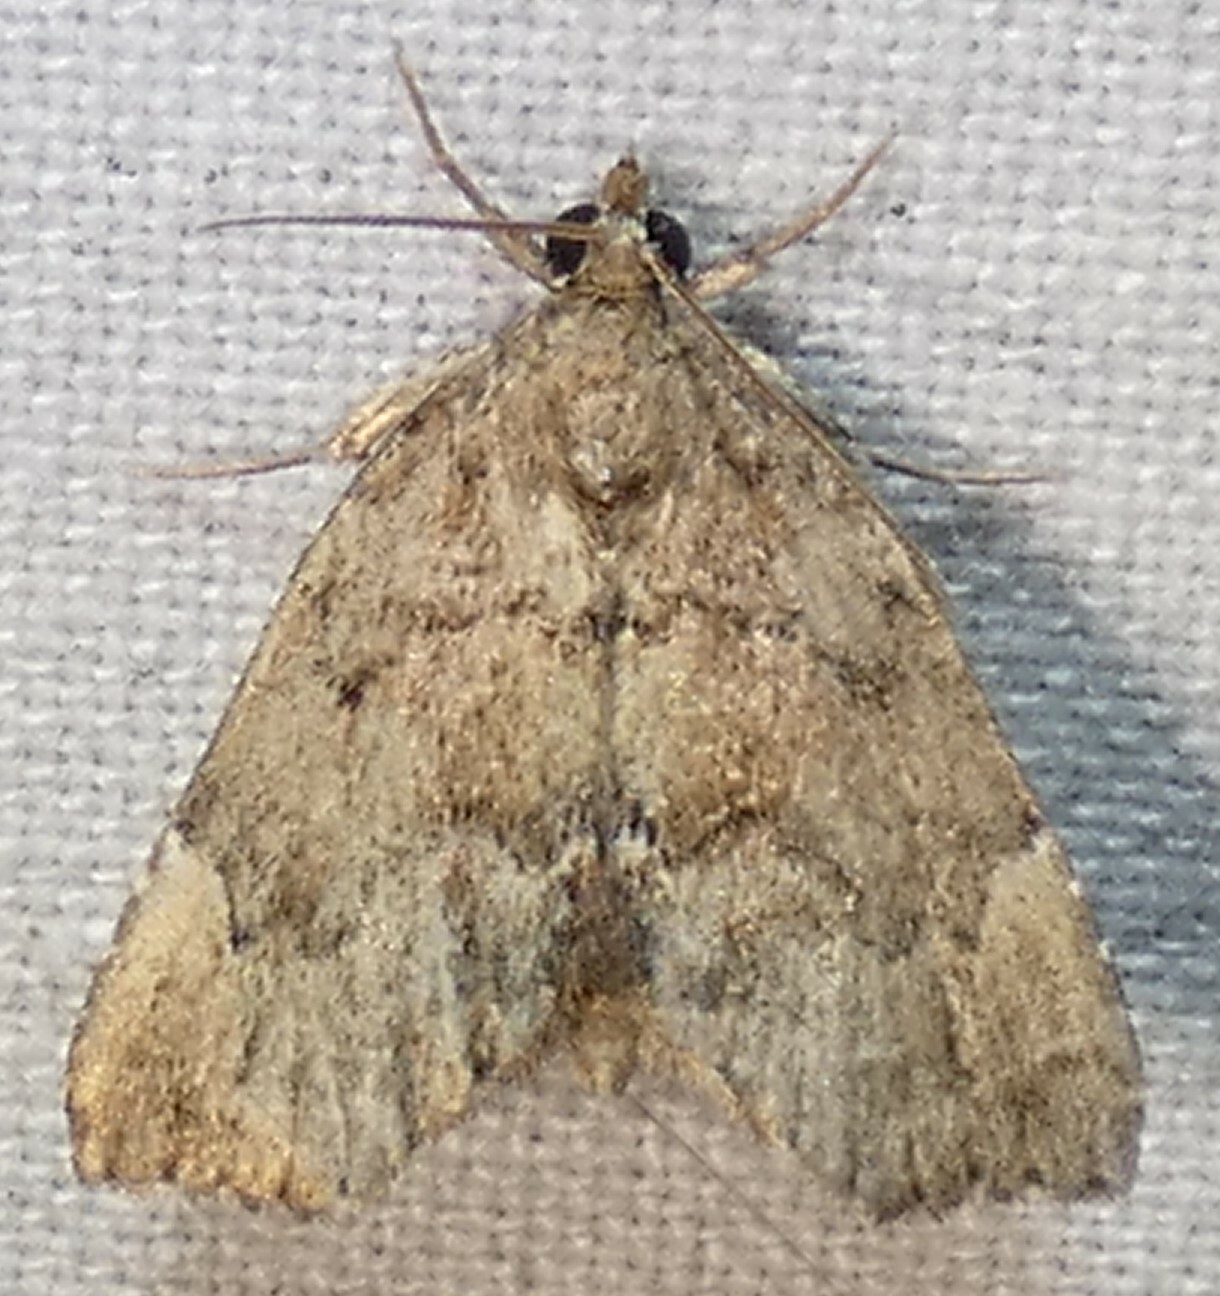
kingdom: Animalia
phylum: Arthropoda
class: Insecta
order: Lepidoptera
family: Erebidae
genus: Cutina
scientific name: Cutina aluticolor
